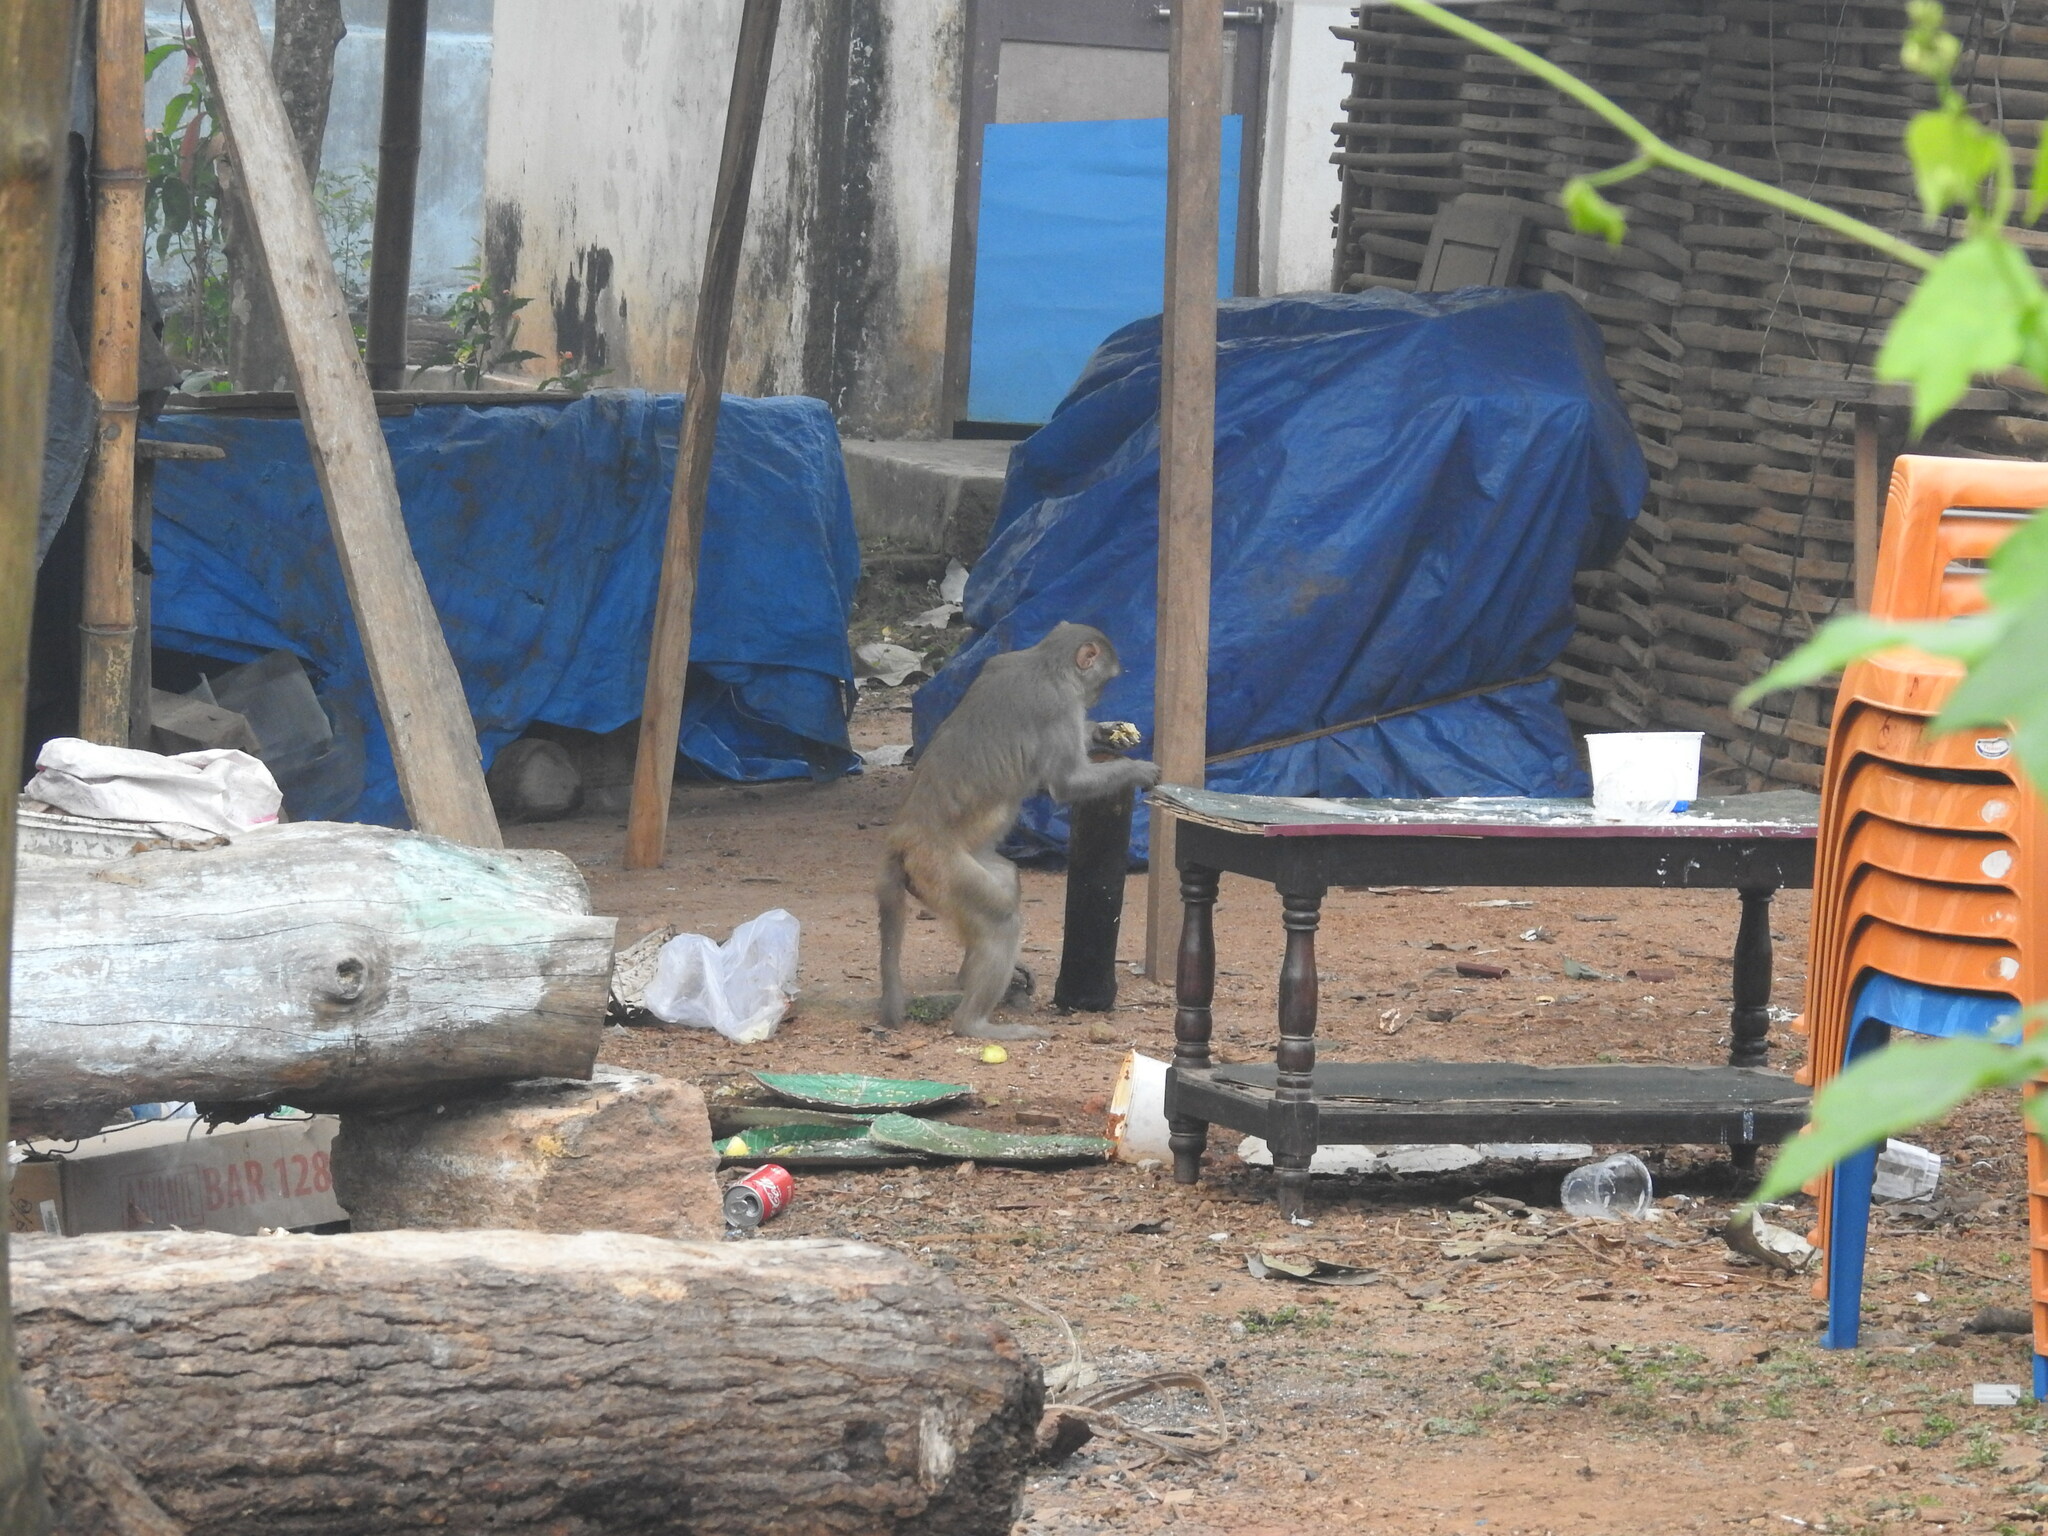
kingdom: Animalia
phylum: Chordata
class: Mammalia
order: Primates
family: Cercopithecidae
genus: Macaca
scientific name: Macaca mulatta
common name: Rhesus monkey
